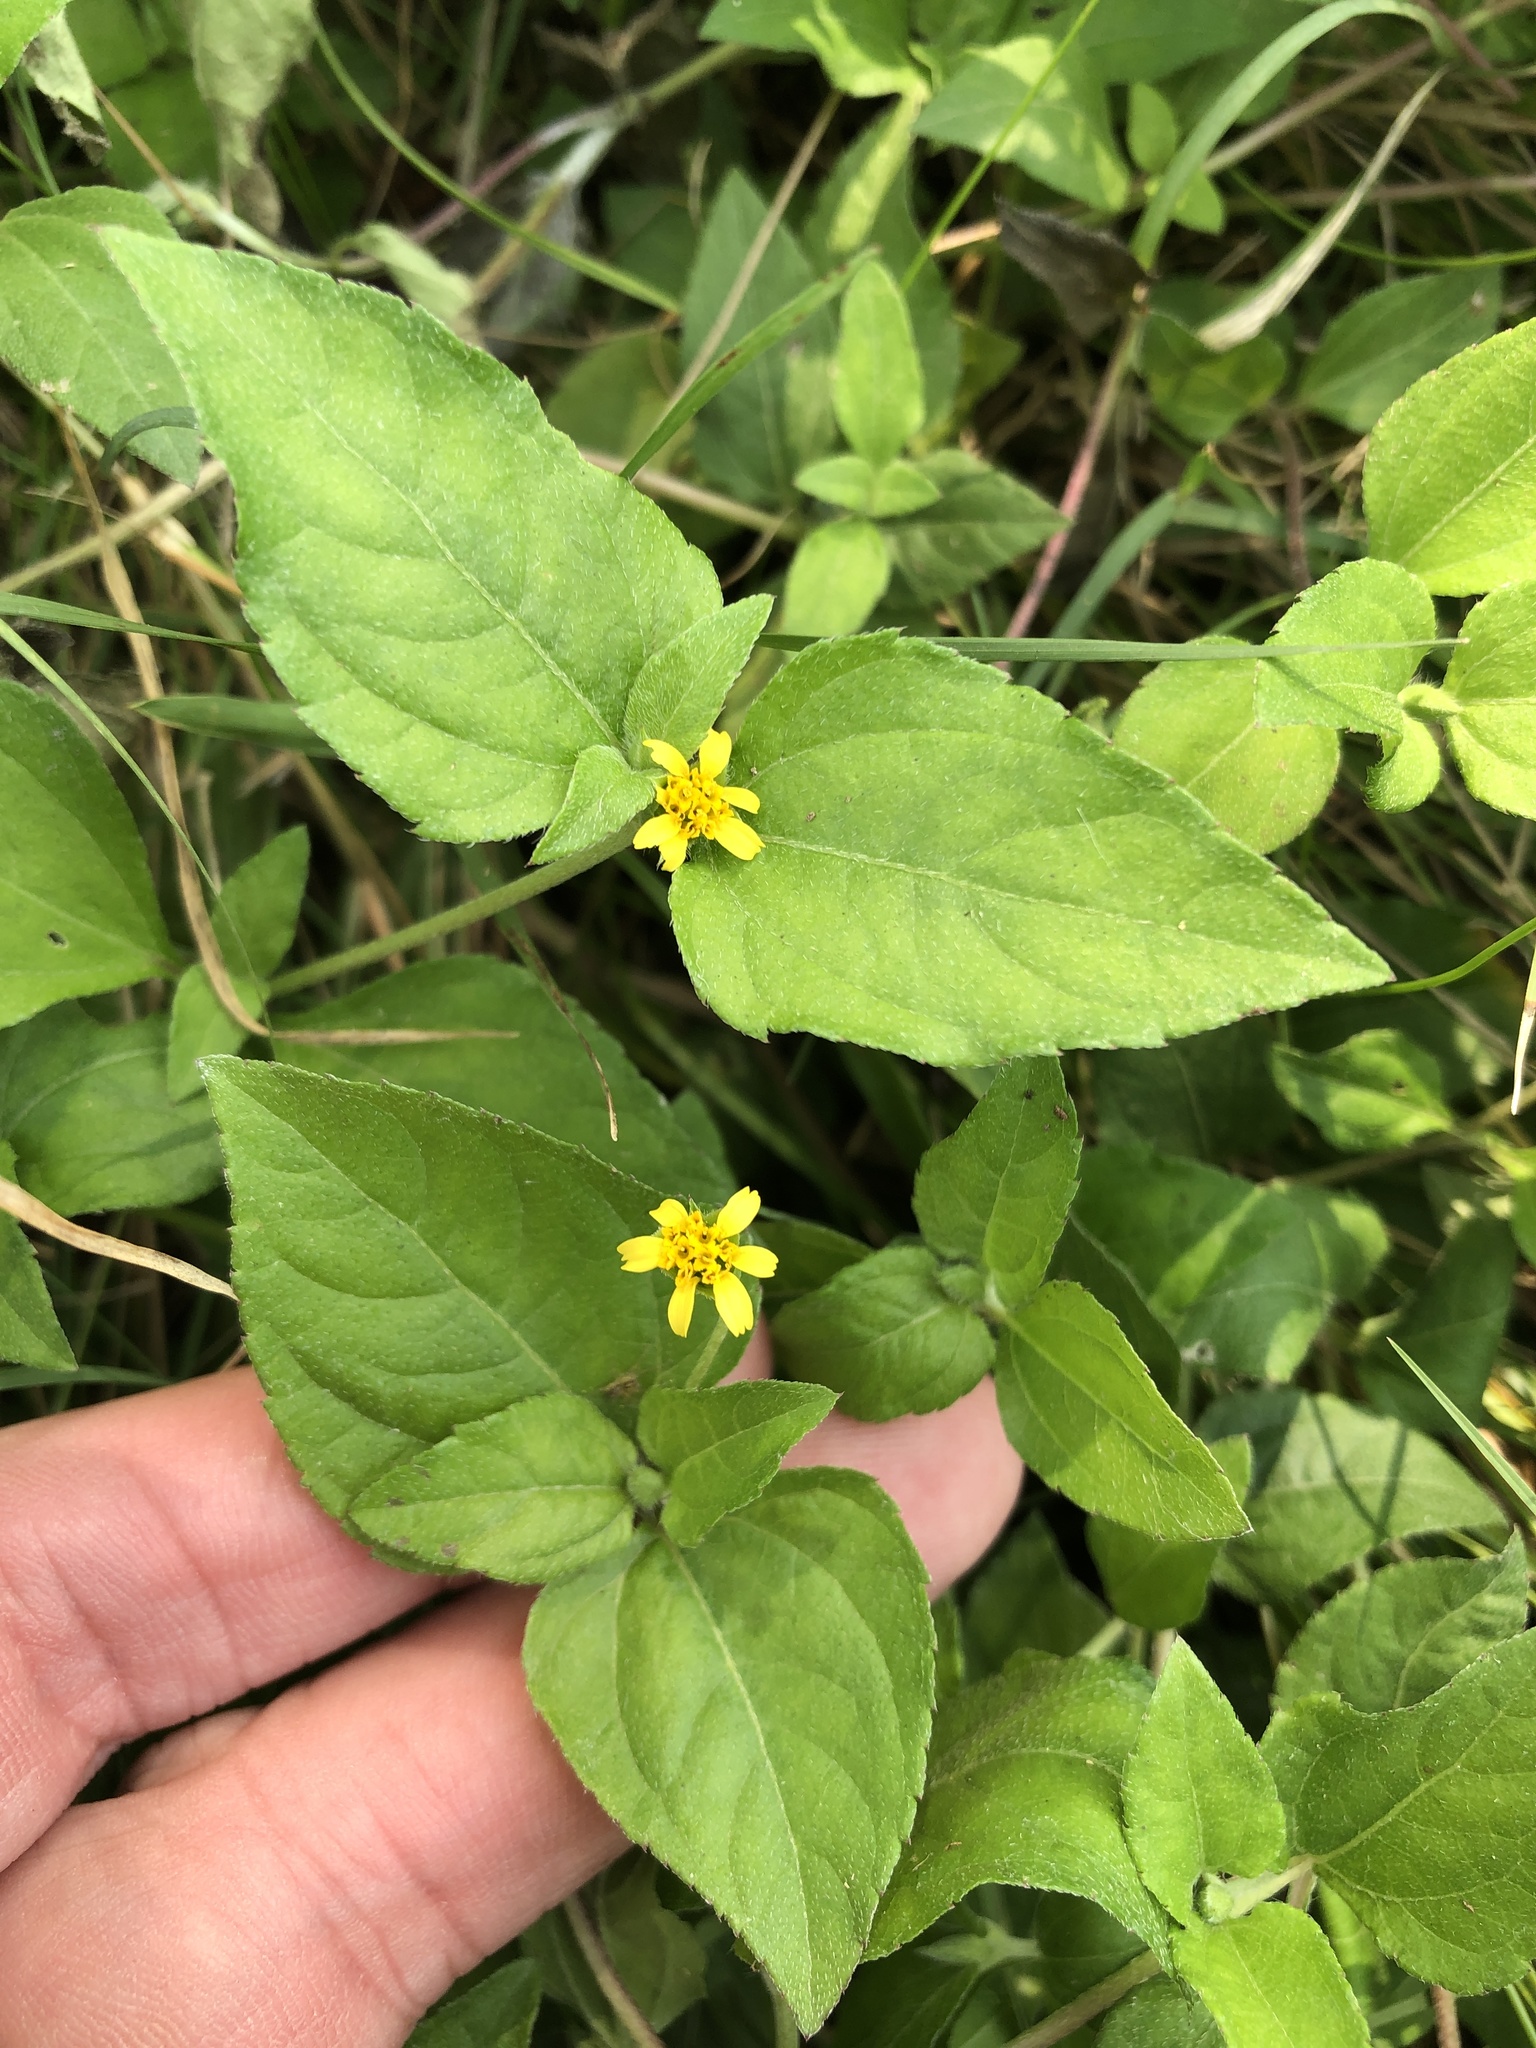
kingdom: Plantae
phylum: Tracheophyta
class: Magnoliopsida
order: Asterales
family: Asteraceae
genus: Calyptocarpus
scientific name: Calyptocarpus vialis
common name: Straggler daisy
